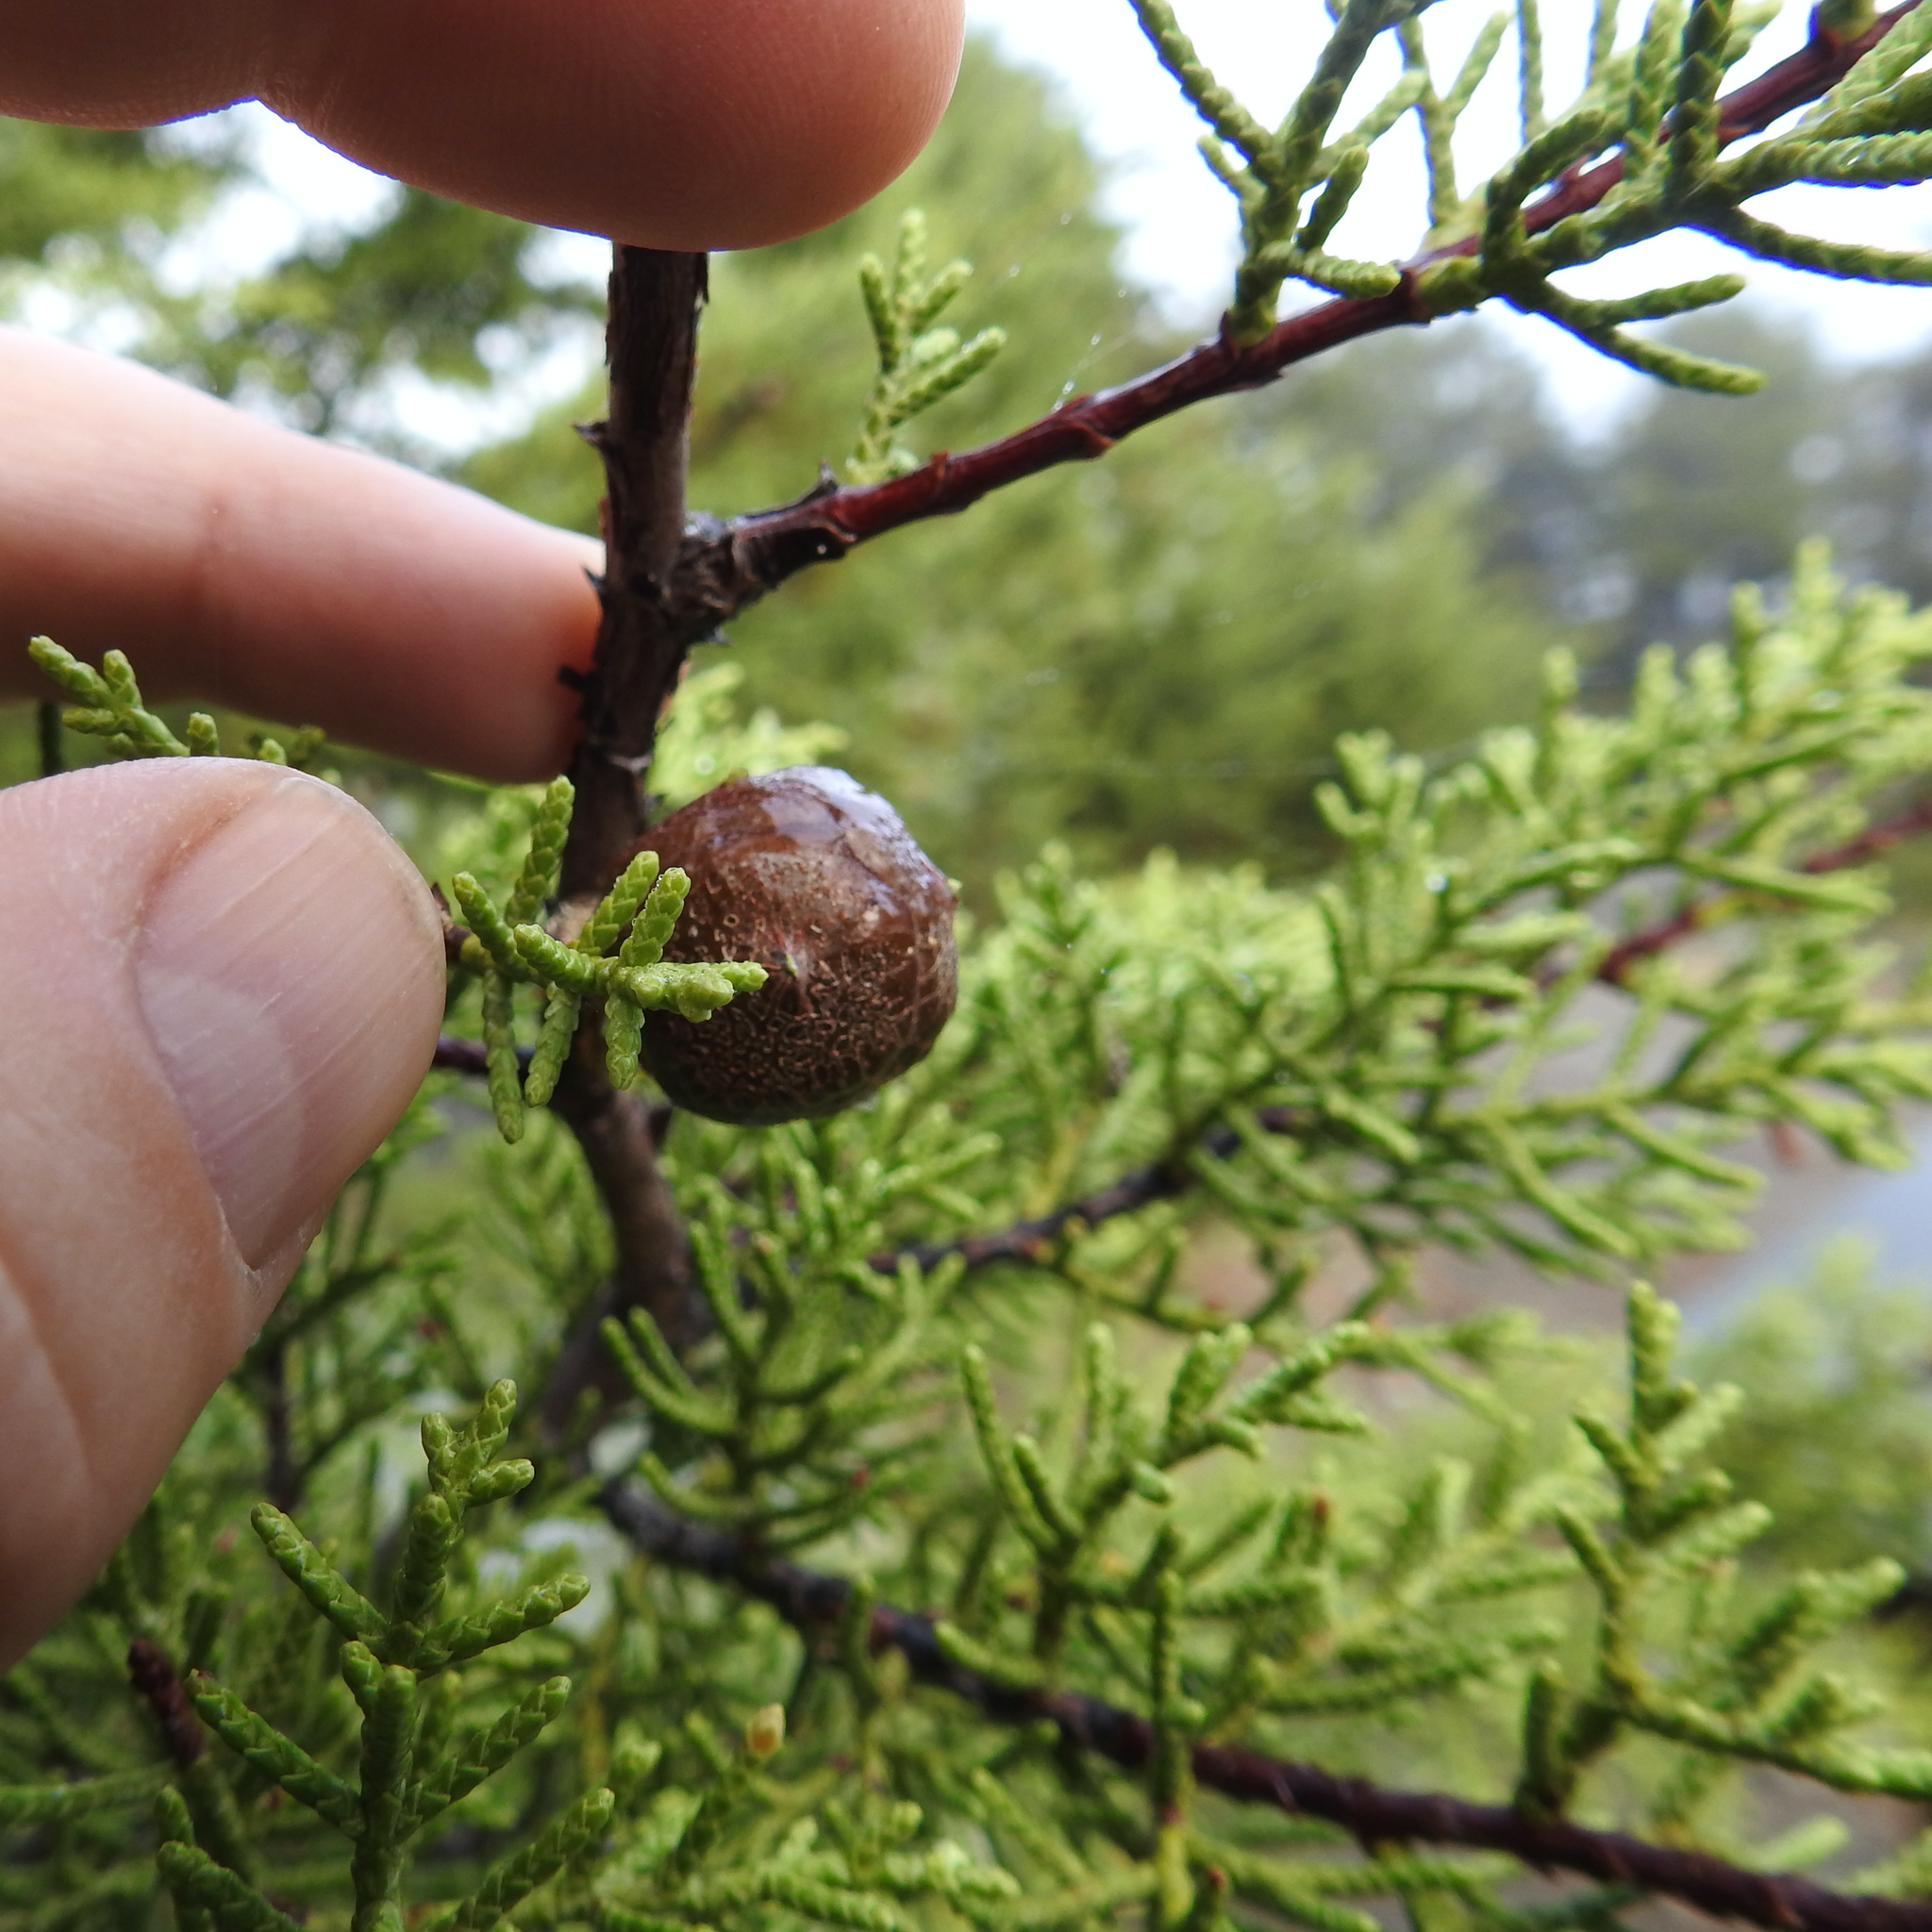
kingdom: Plantae
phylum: Tracheophyta
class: Pinopsida
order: Pinales
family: Cupressaceae
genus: Cupressus
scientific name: Cupressus sargentii
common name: Sargent cypress
